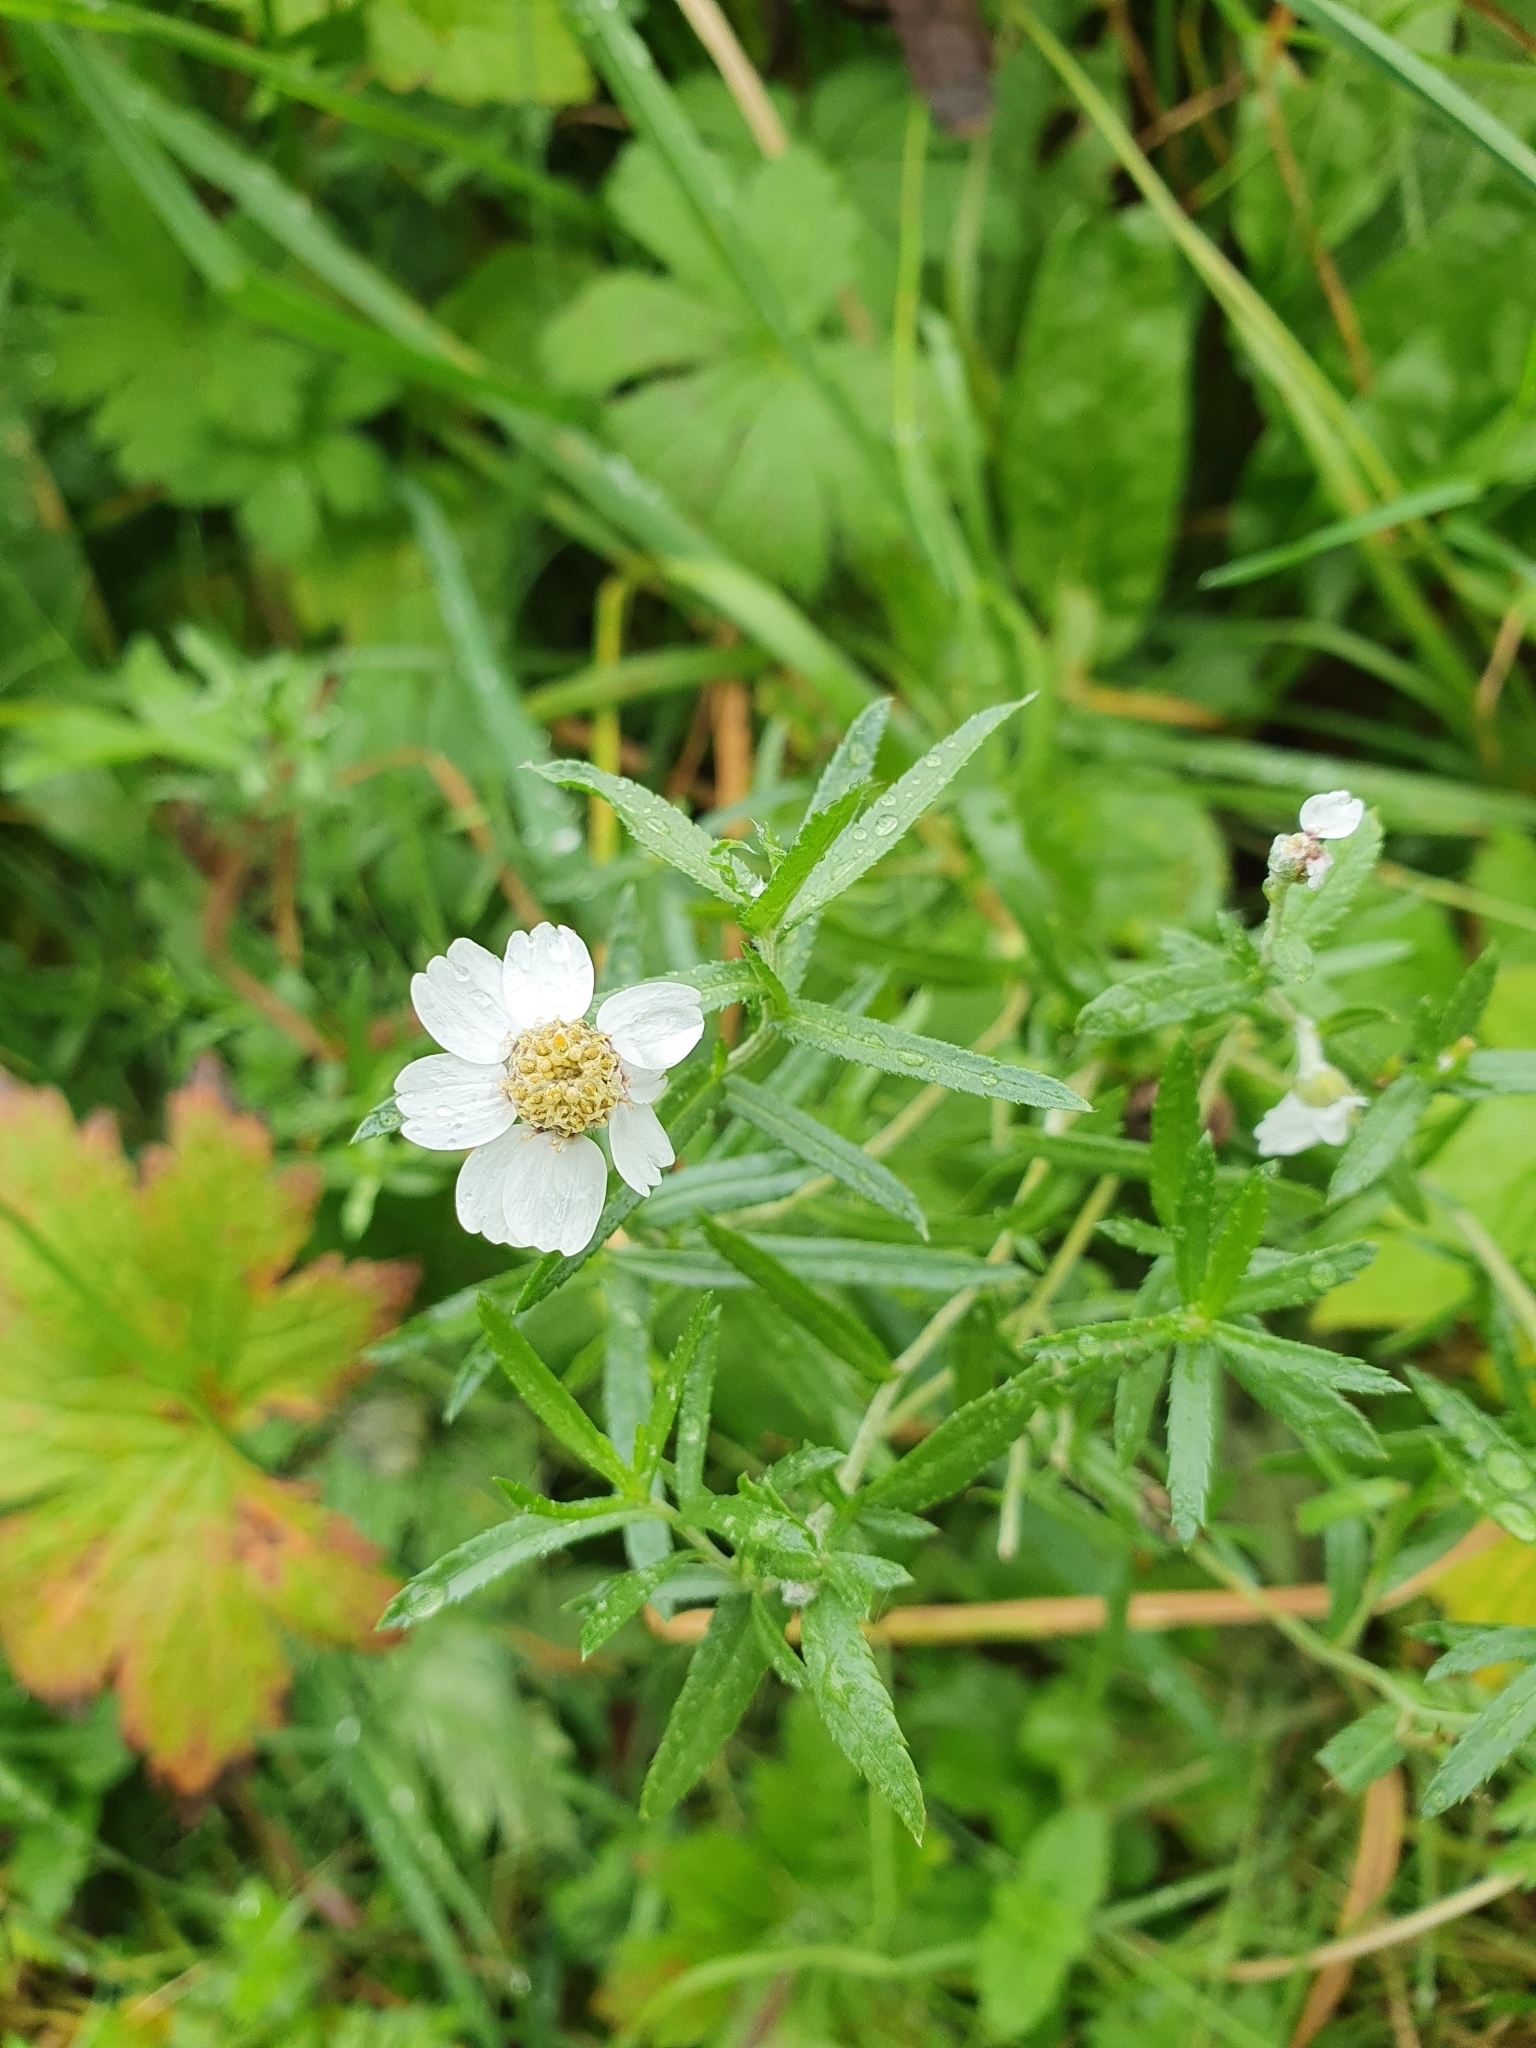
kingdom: Plantae
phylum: Tracheophyta
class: Magnoliopsida
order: Asterales
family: Asteraceae
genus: Achillea
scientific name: Achillea ptarmica
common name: Sneezeweed
